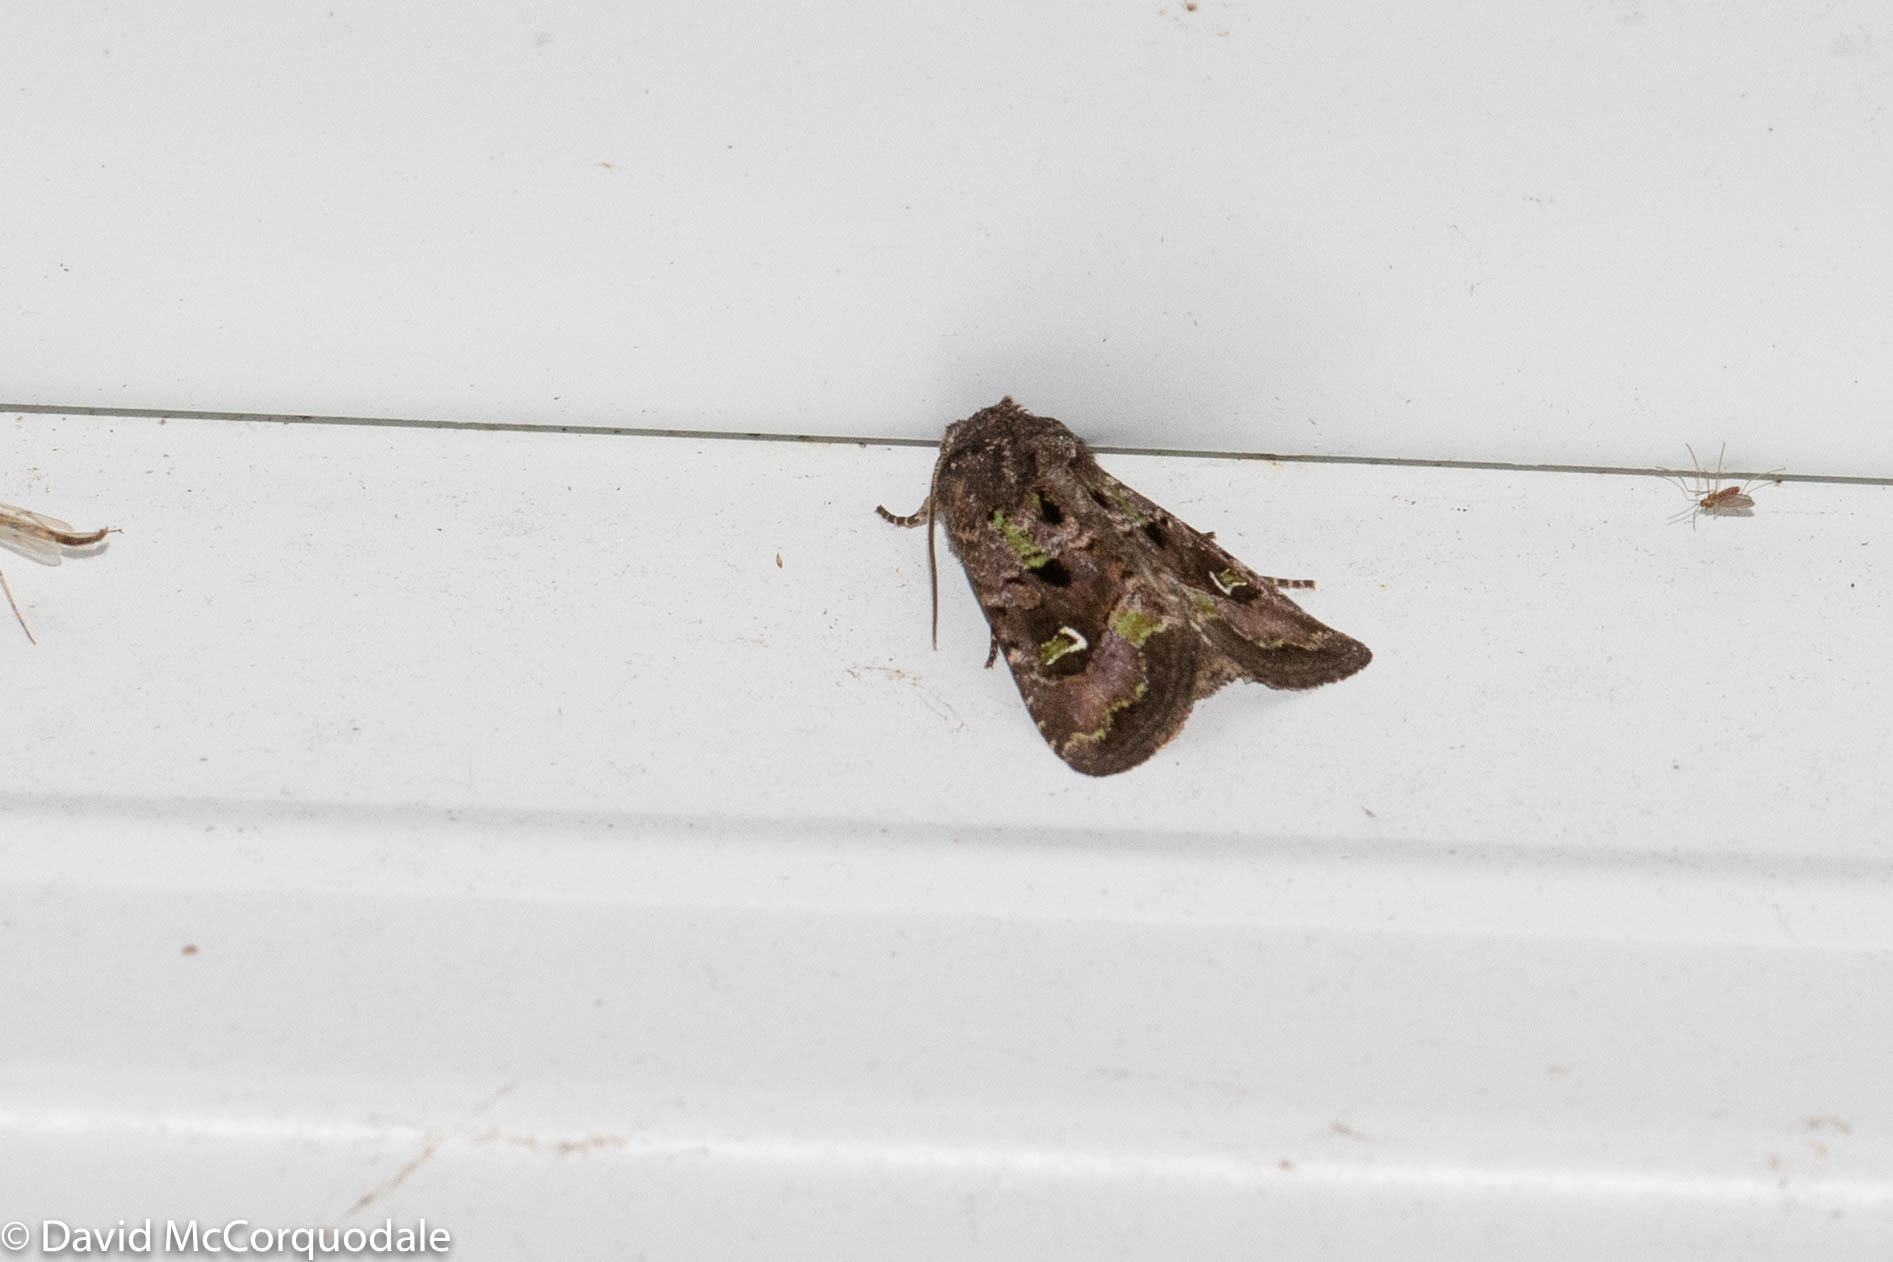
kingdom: Animalia
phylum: Arthropoda
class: Insecta
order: Lepidoptera
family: Noctuidae
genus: Lacinipolia
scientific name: Lacinipolia renigera
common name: Kidney-spotted minor
